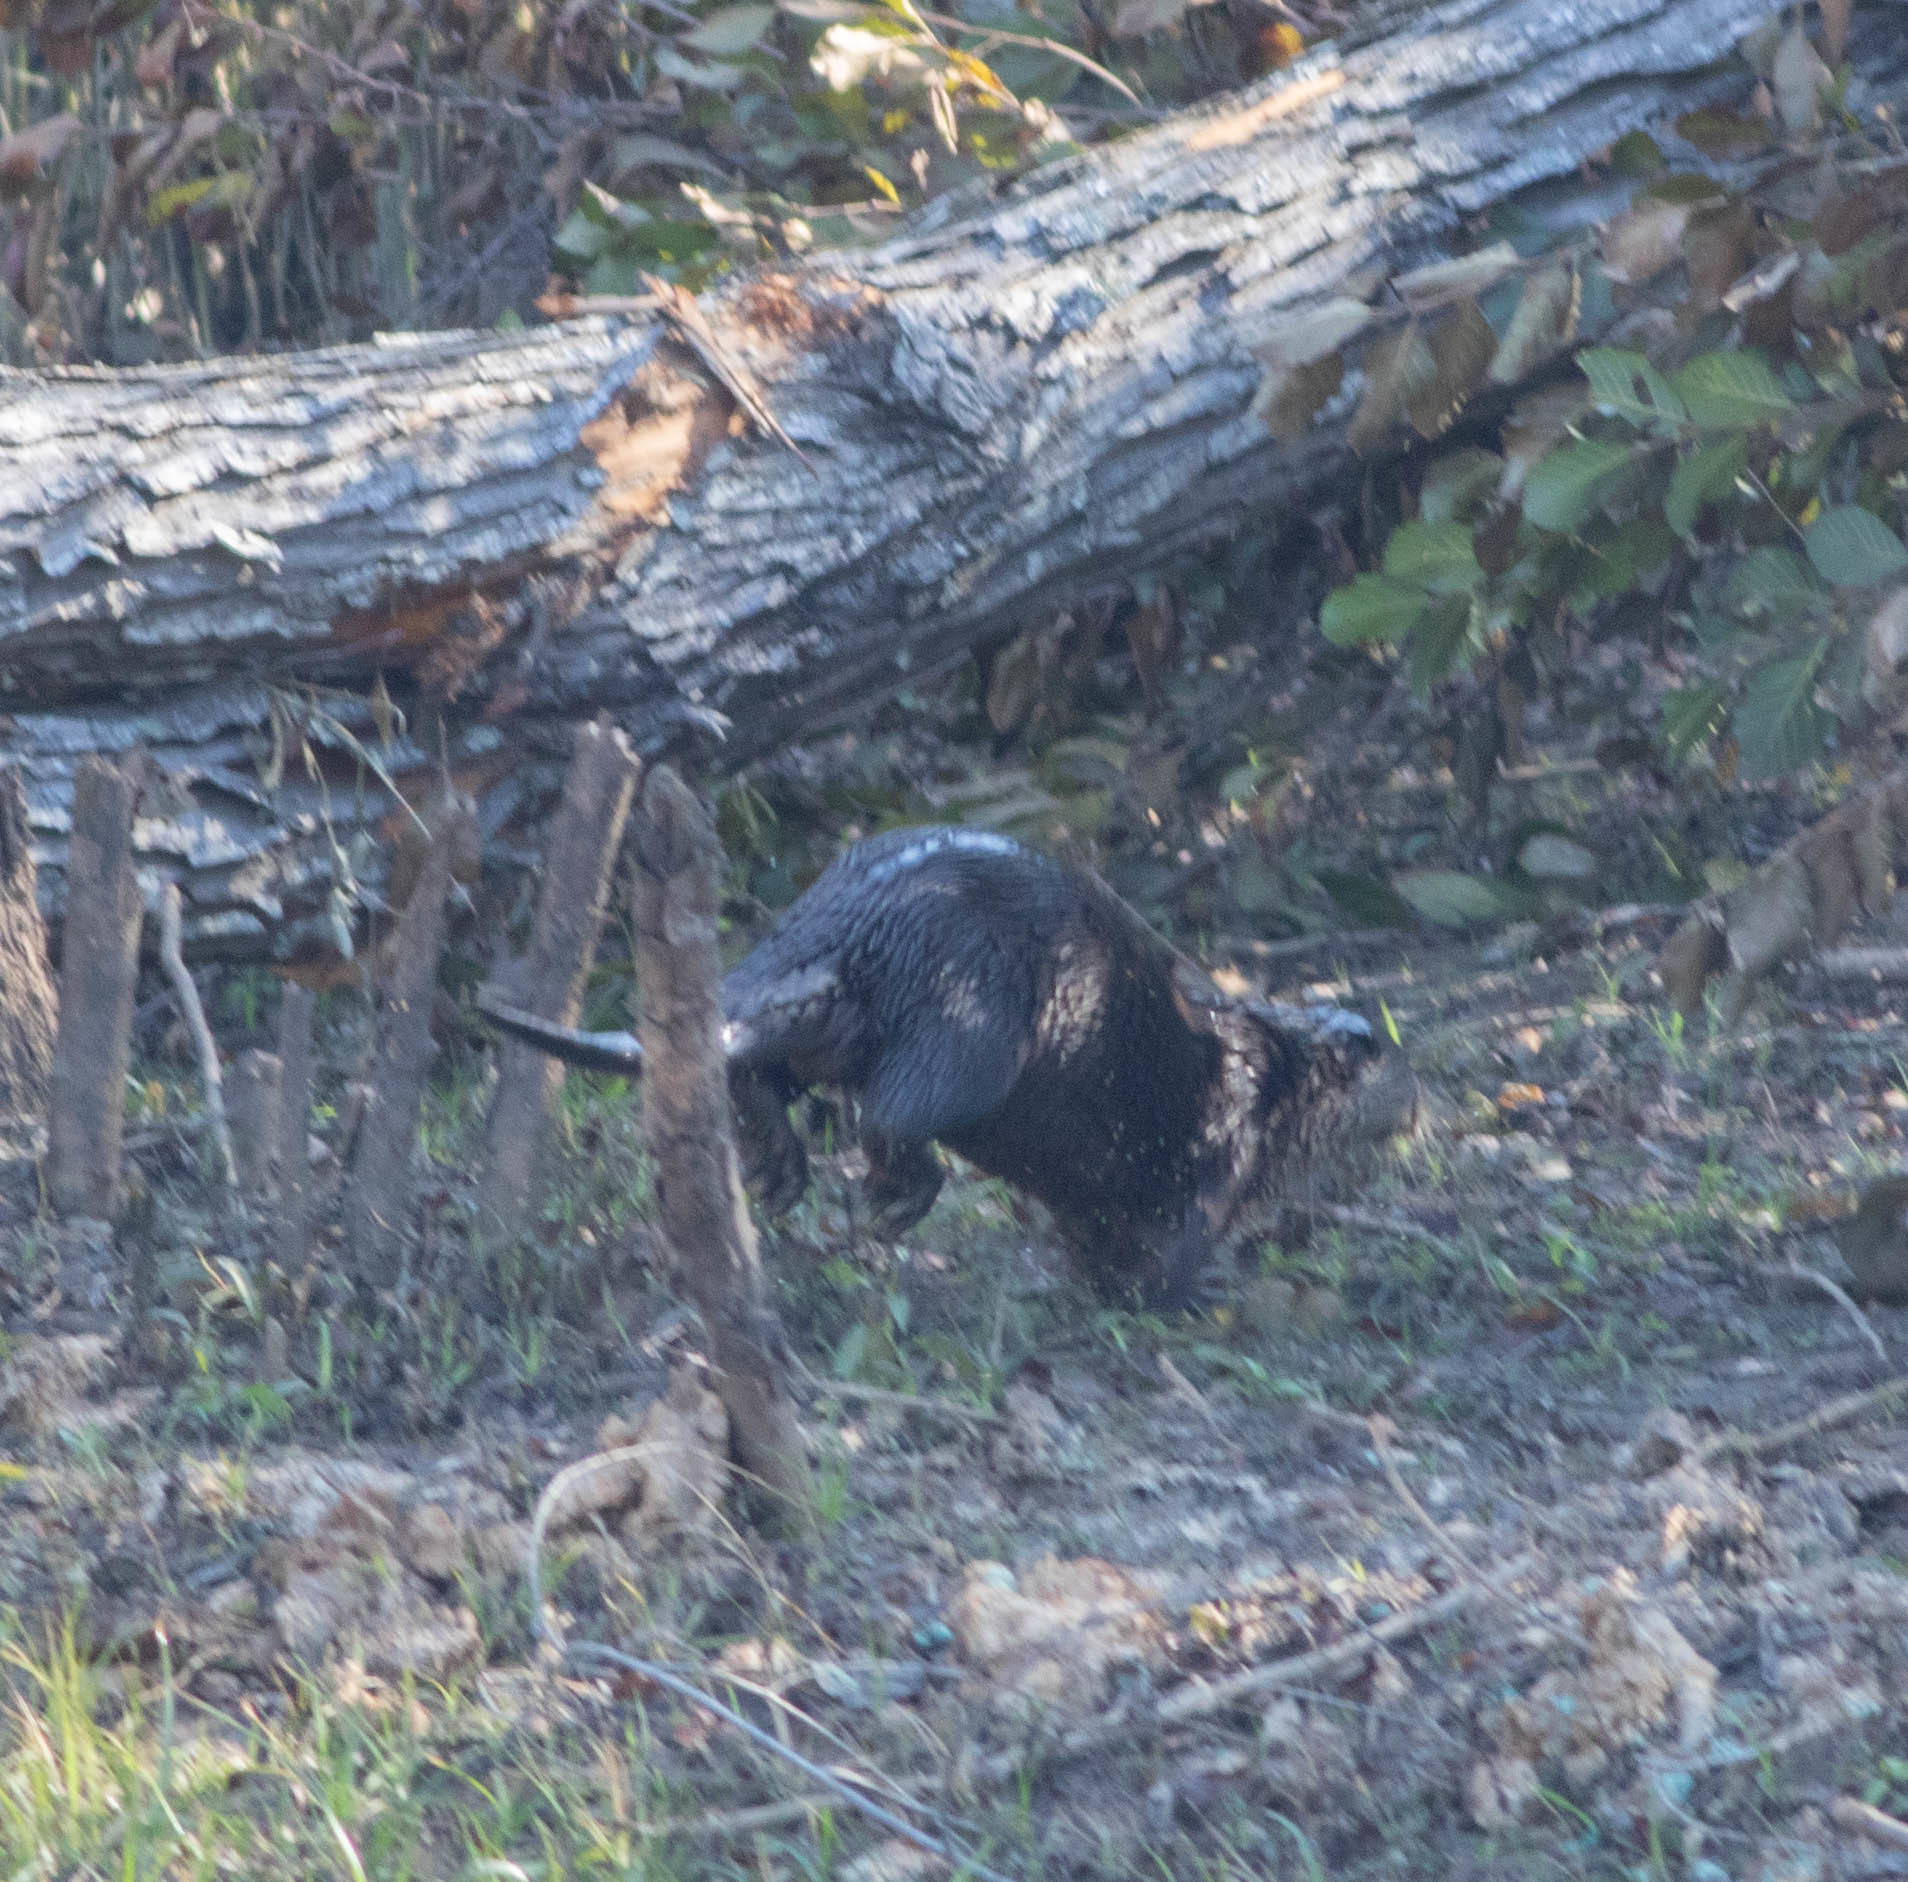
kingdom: Animalia
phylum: Chordata
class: Mammalia
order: Carnivora
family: Mustelidae
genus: Lontra
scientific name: Lontra canadensis
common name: North american river otter
